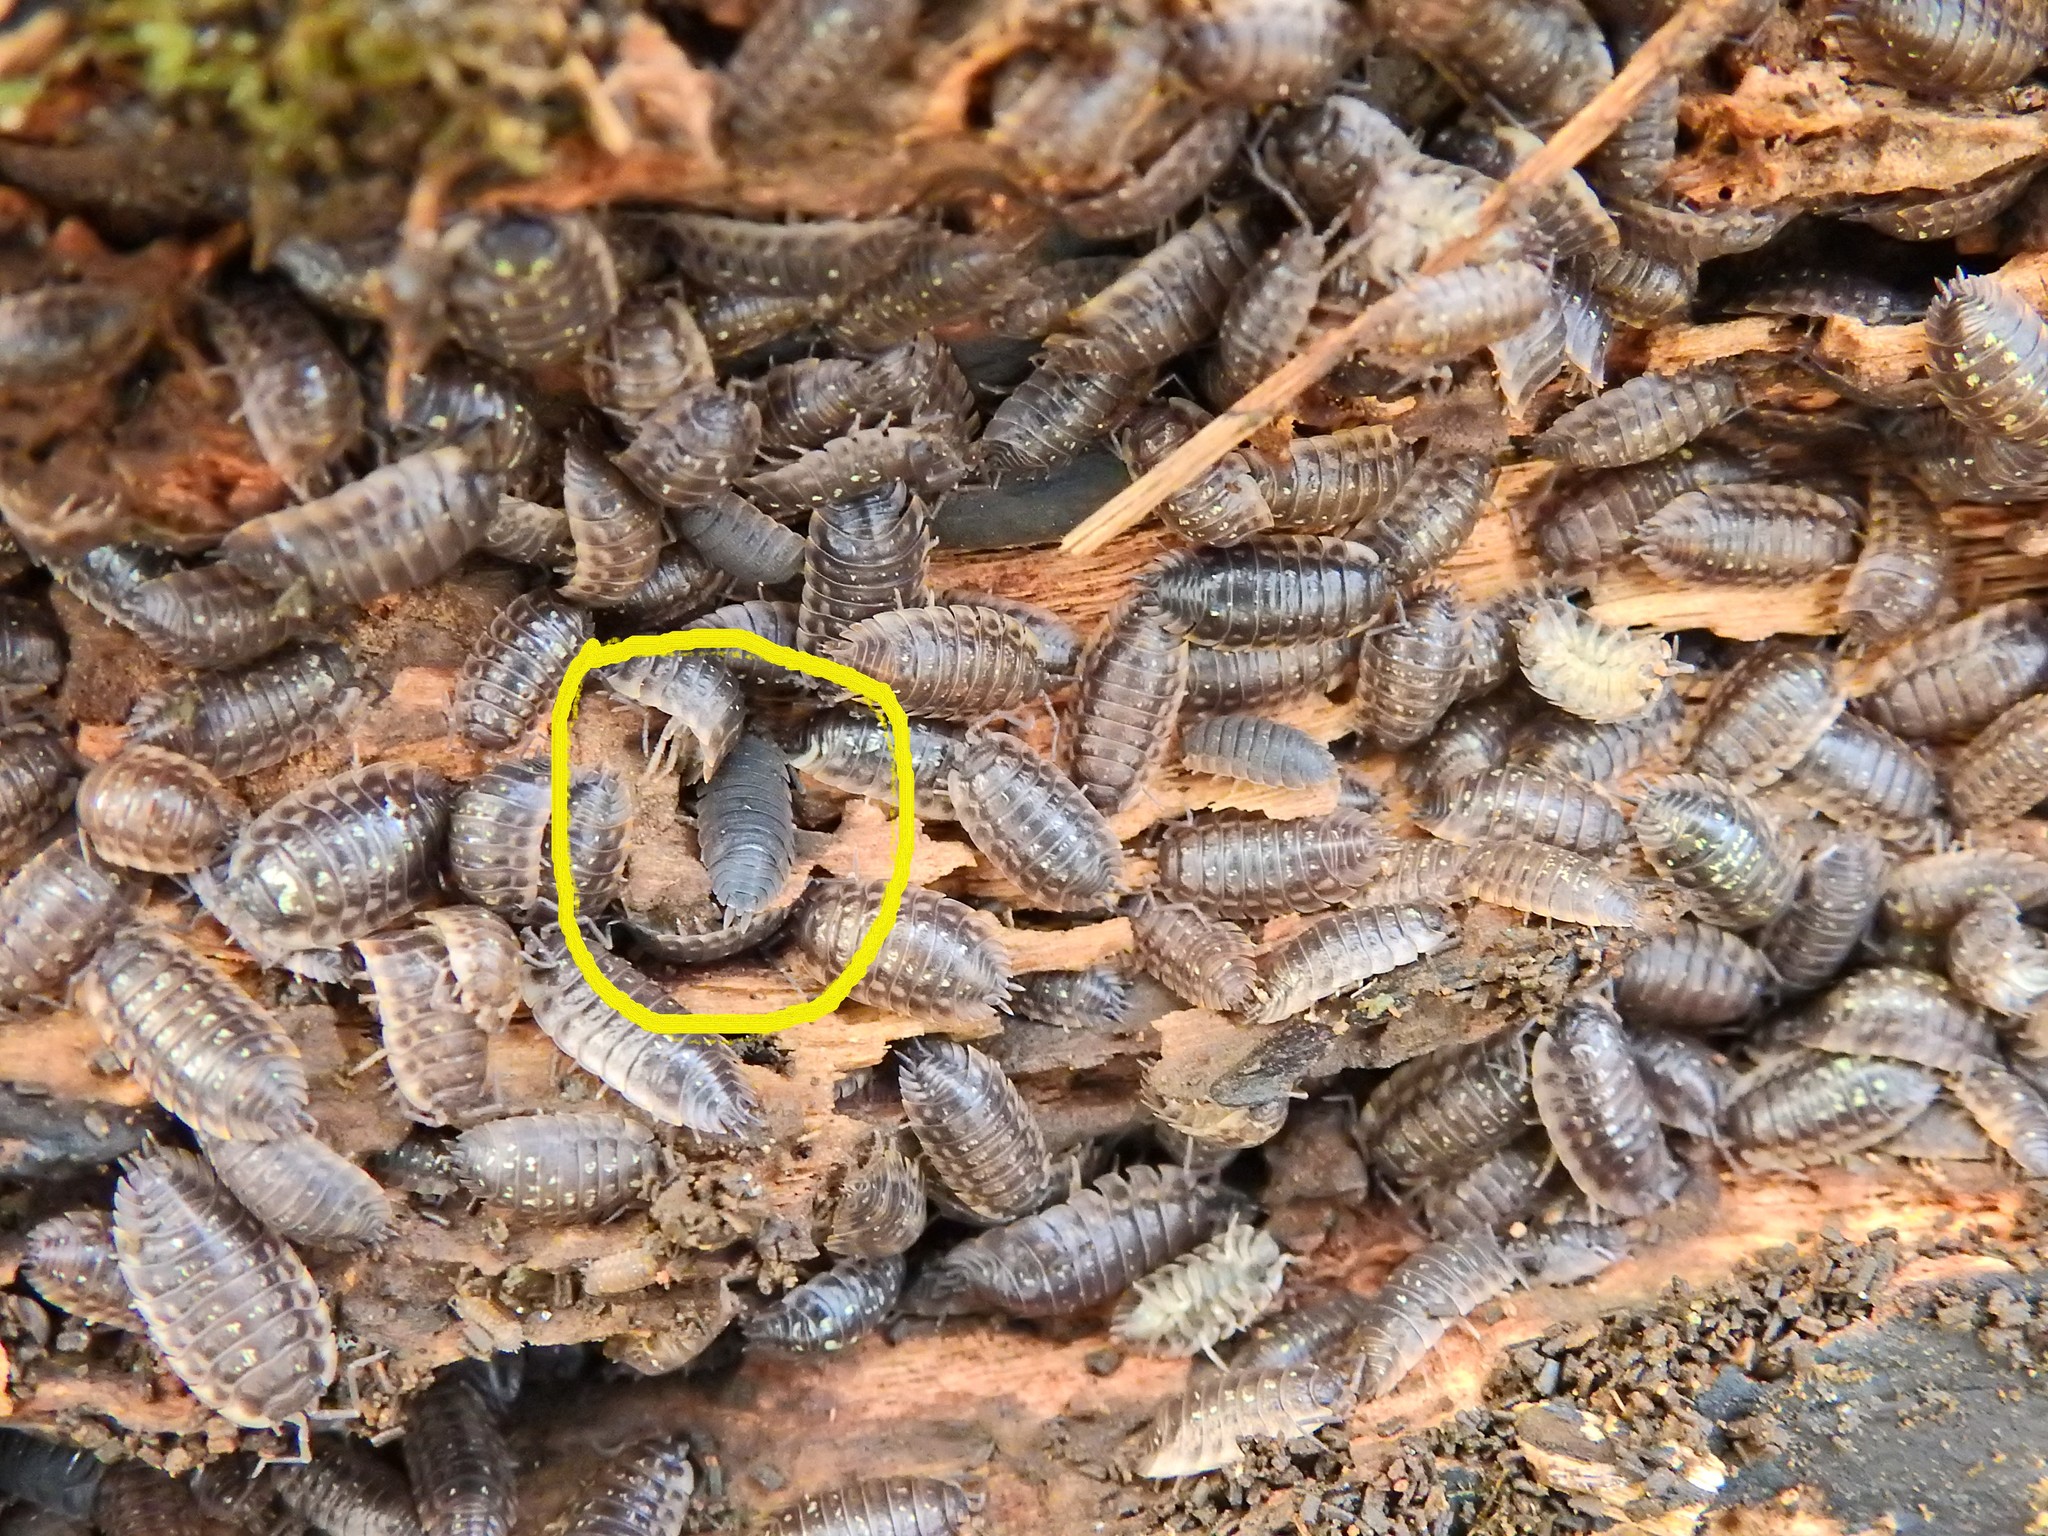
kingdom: Animalia
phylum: Arthropoda
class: Malacostraca
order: Isopoda
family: Porcellionidae
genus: Porcellio
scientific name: Porcellio scaber
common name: Common rough woodlouse
